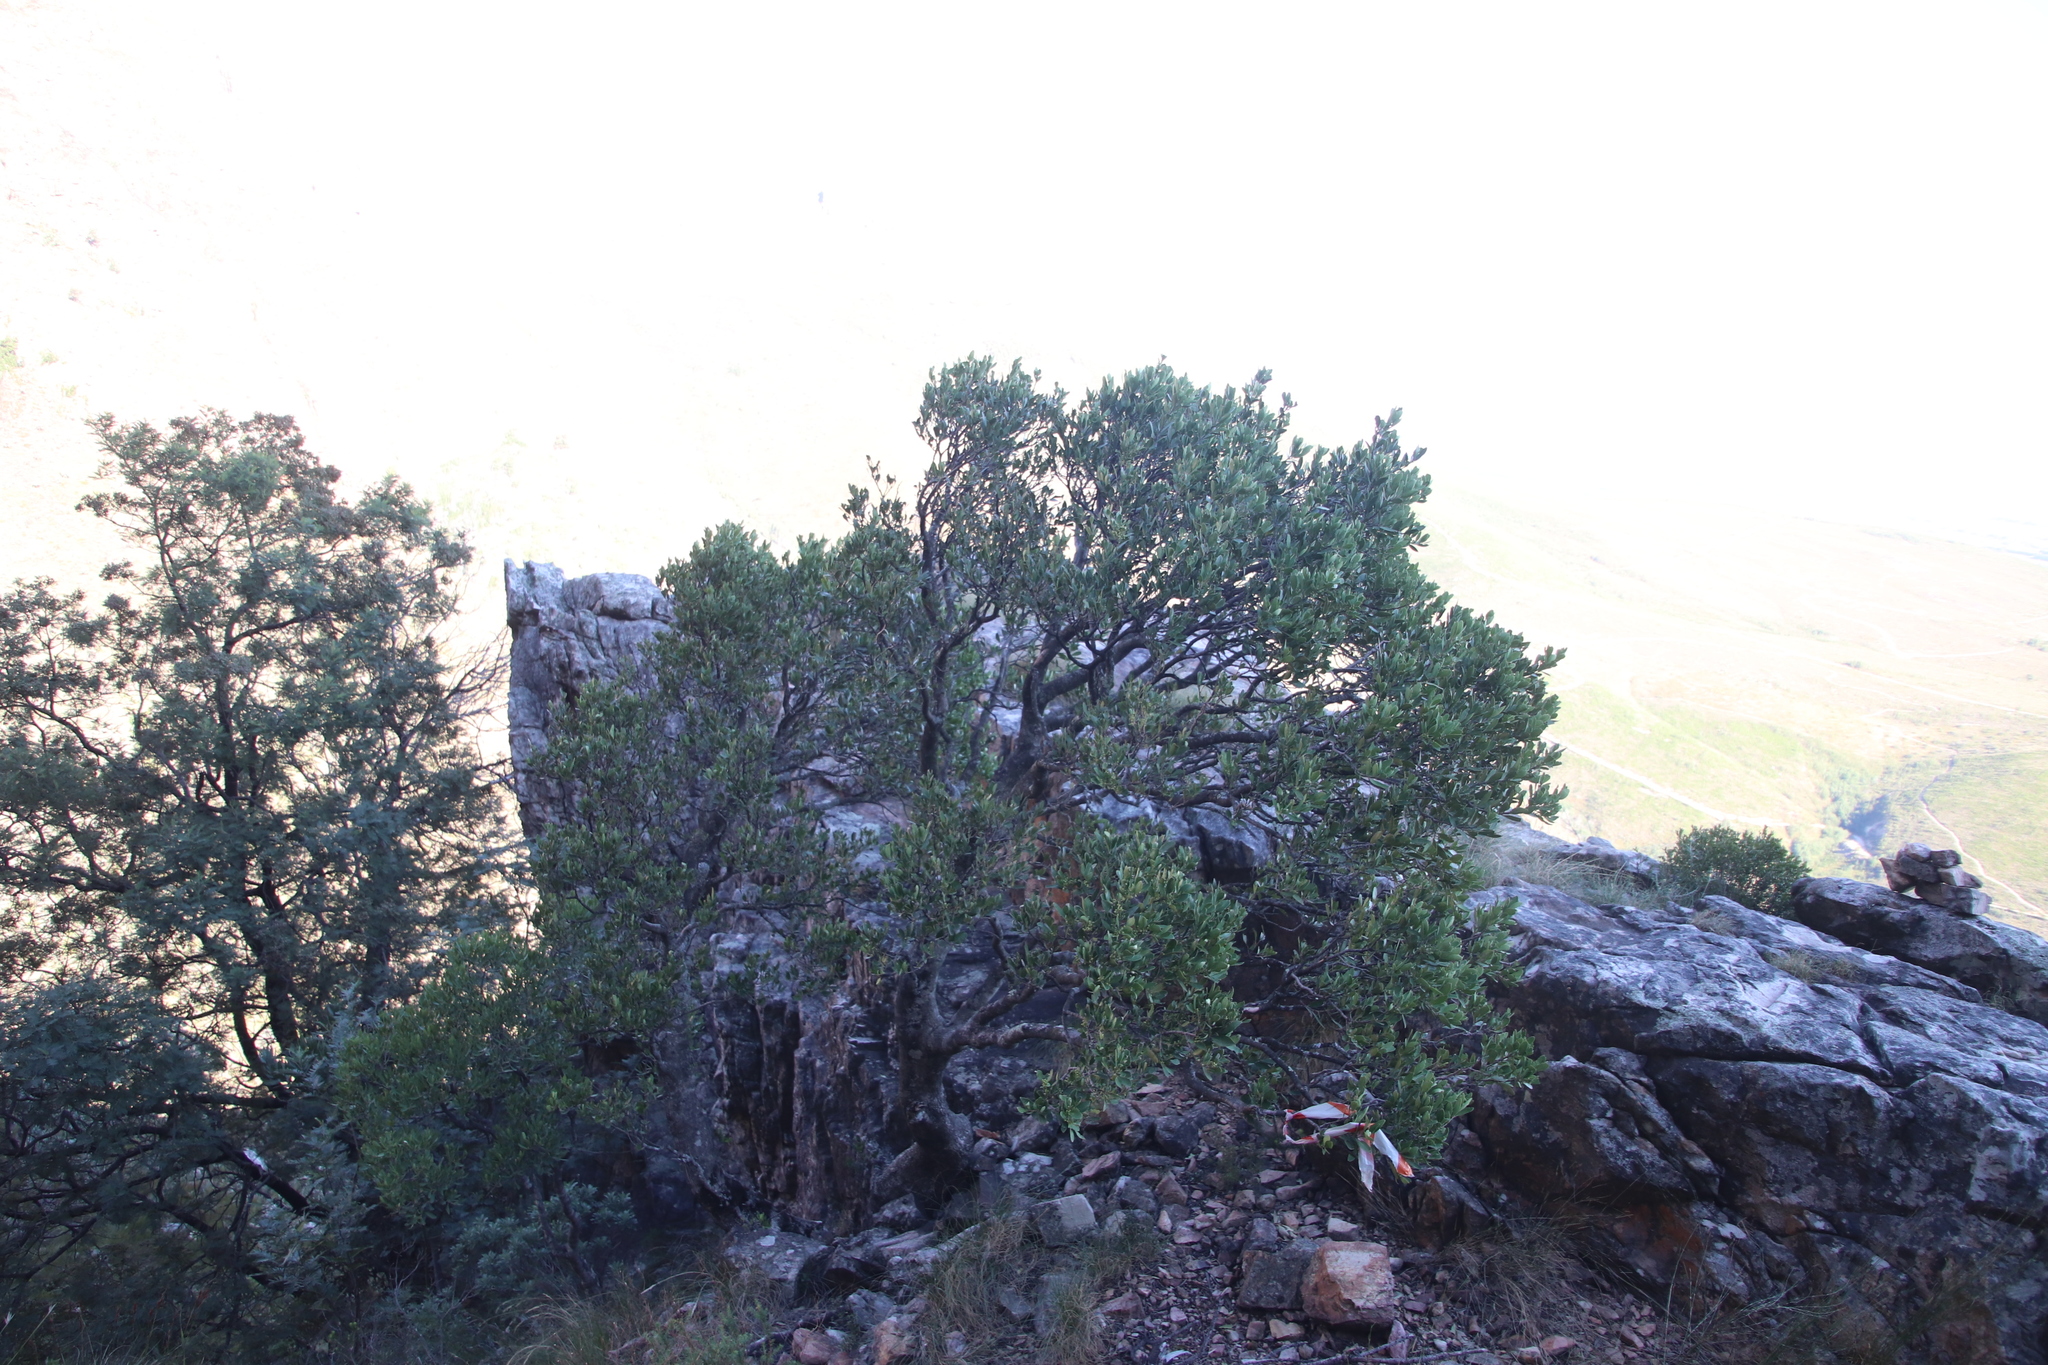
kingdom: Plantae
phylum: Tracheophyta
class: Magnoliopsida
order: Celastrales
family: Celastraceae
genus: Gymnosporia
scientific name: Gymnosporia laurina
